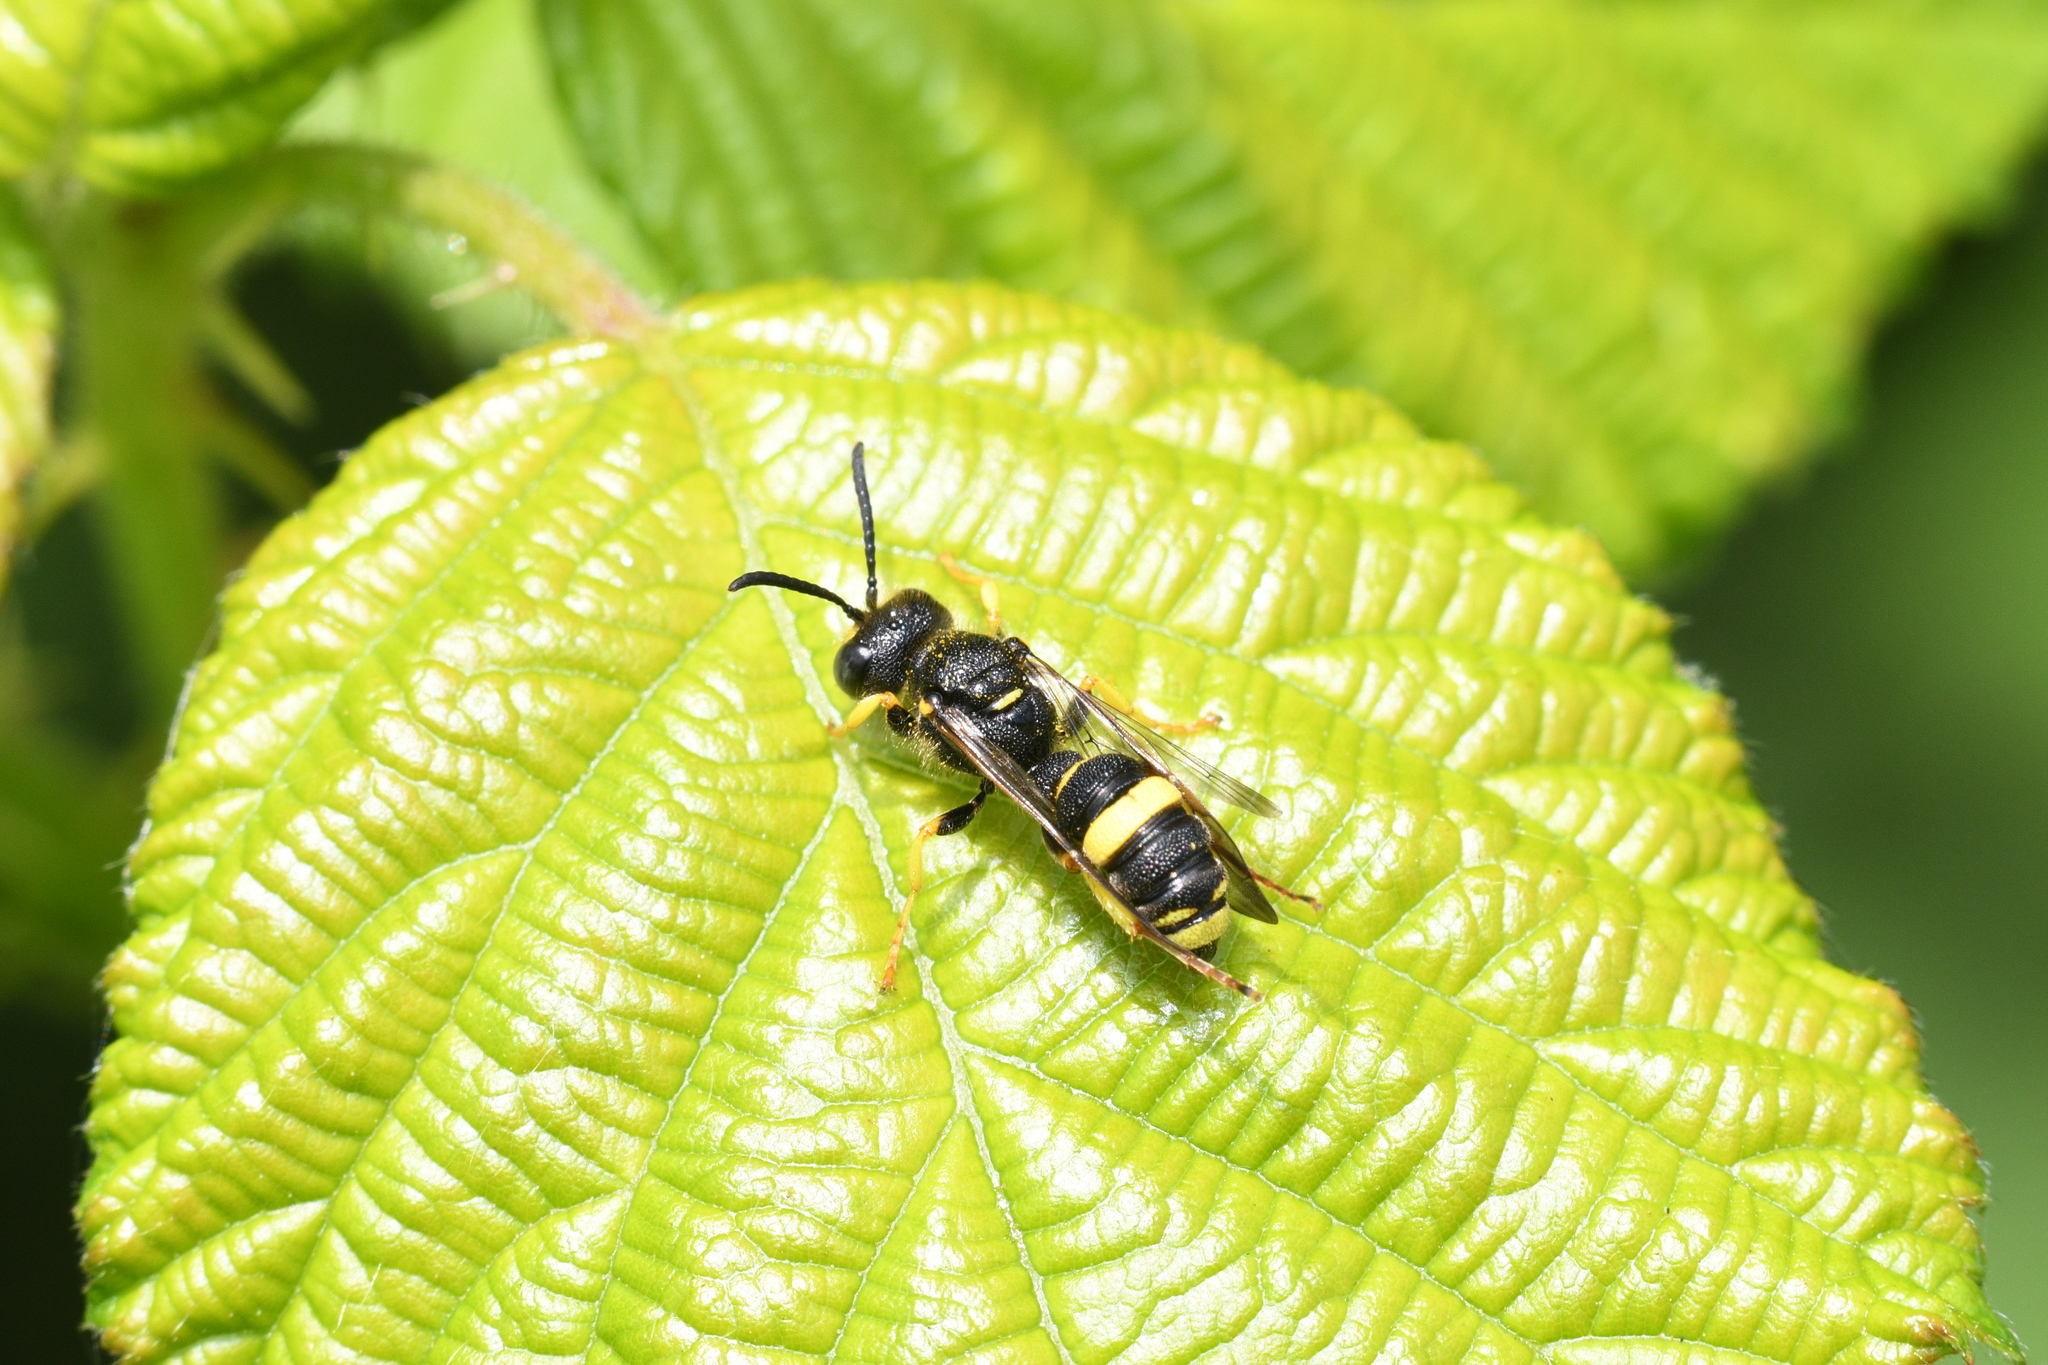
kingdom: Animalia
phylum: Arthropoda
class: Insecta
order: Hymenoptera
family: Crabronidae
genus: Cerceris
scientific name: Cerceris rybyensis
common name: Ornate tailed digger wasp
